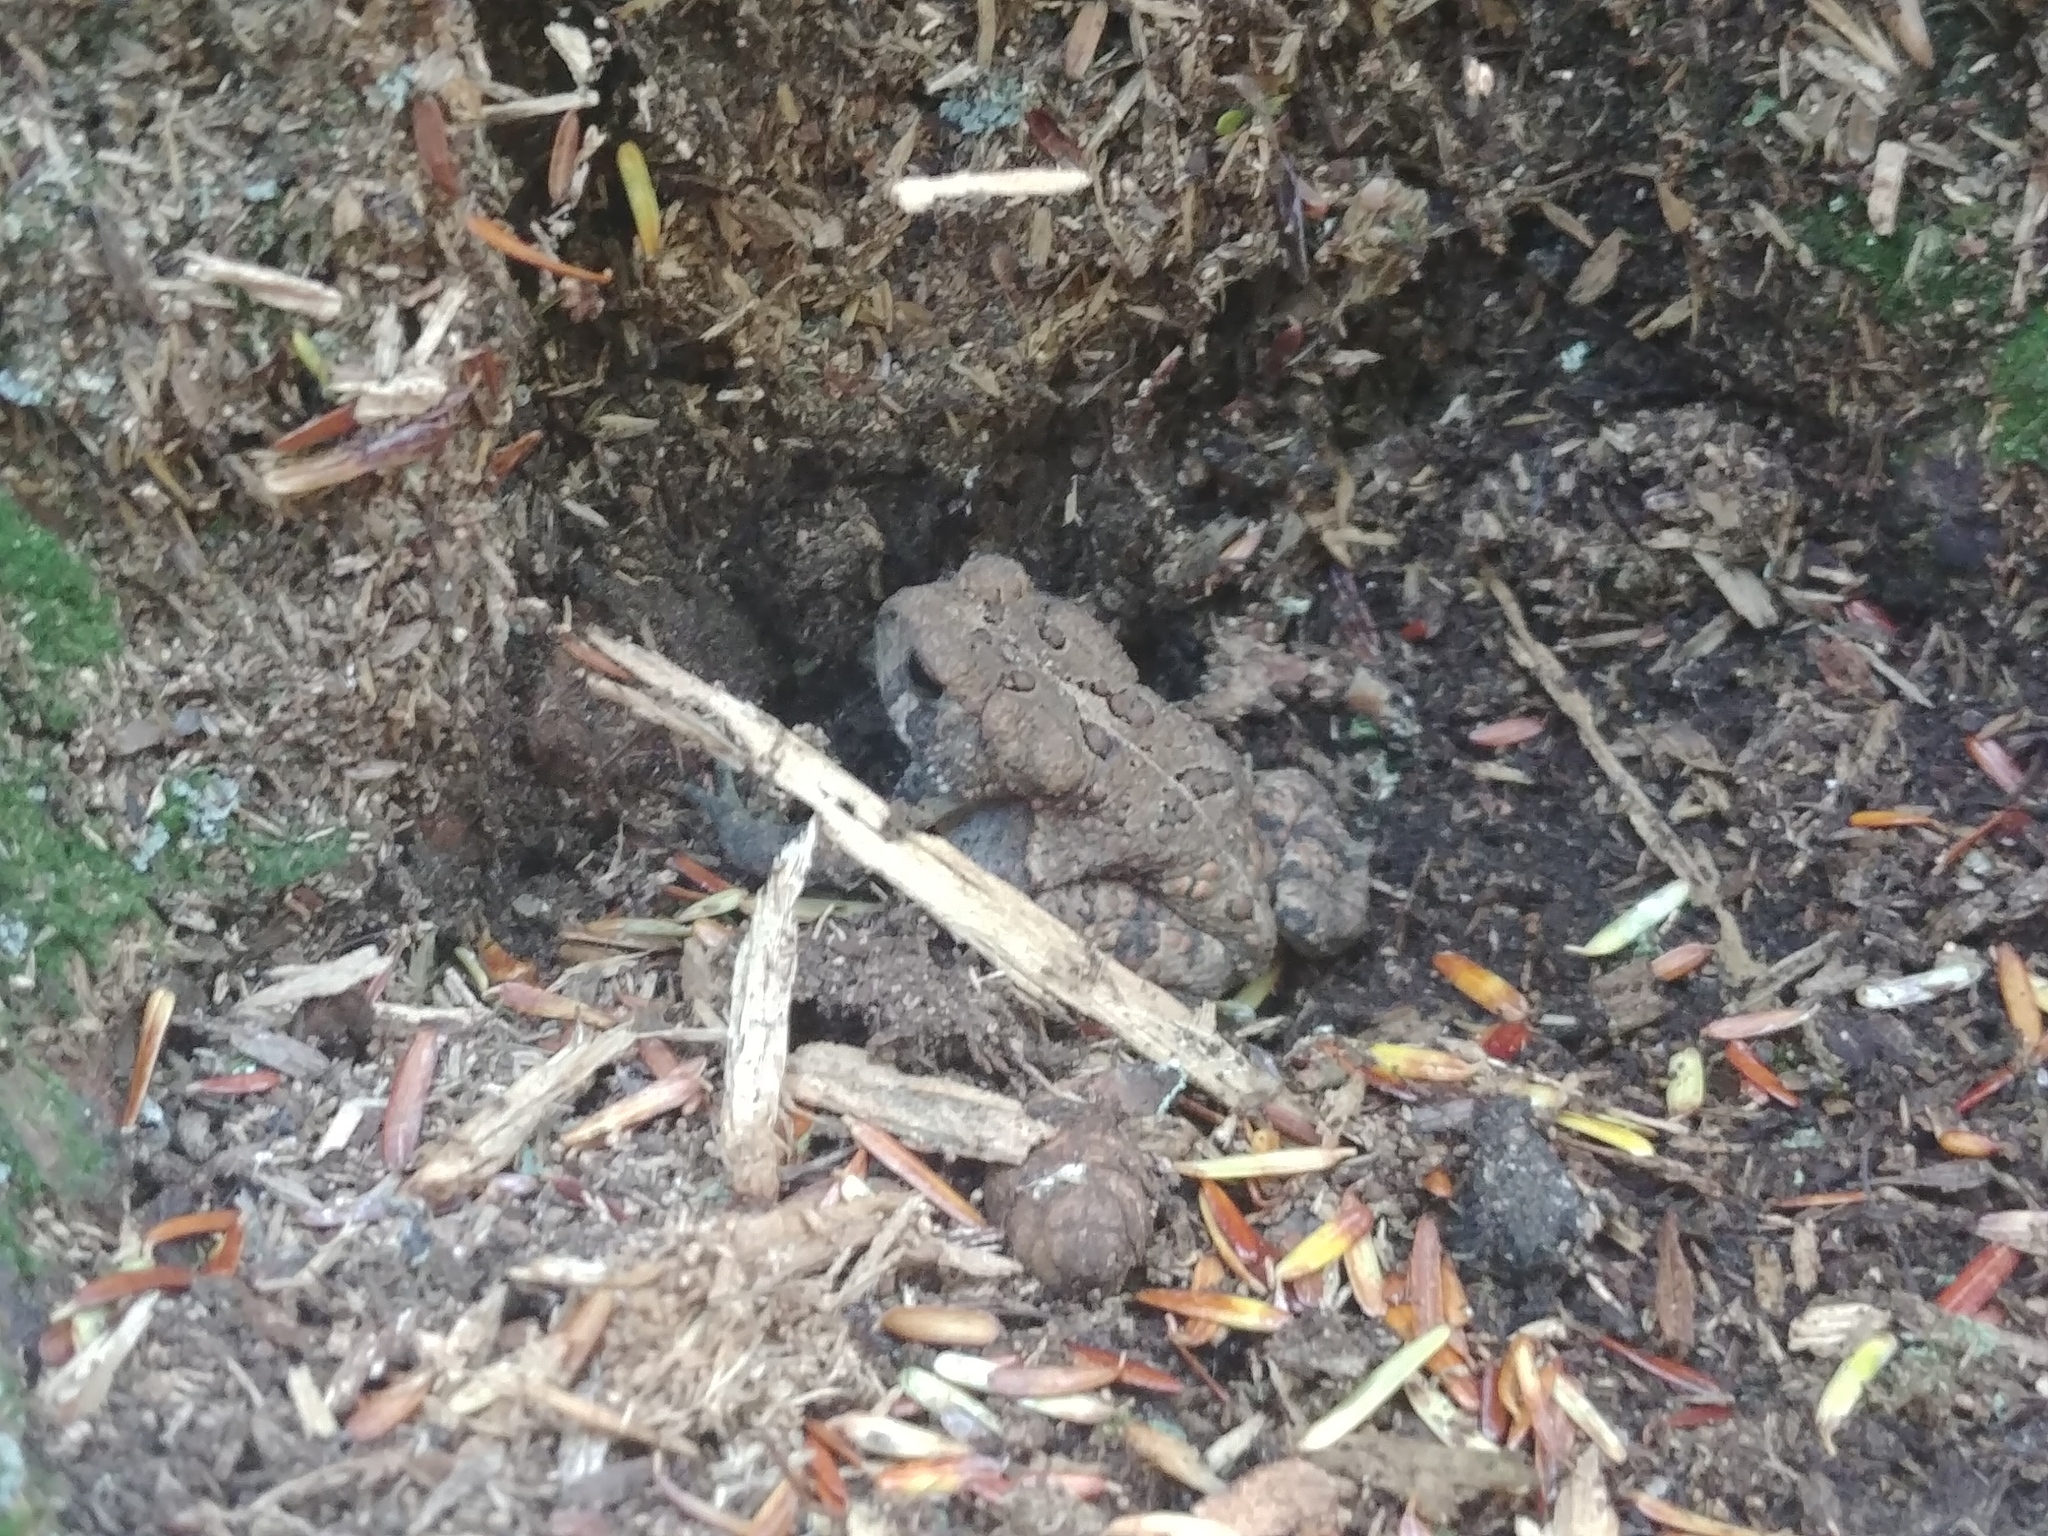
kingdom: Animalia
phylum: Chordata
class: Amphibia
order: Anura
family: Bufonidae
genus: Anaxyrus
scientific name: Anaxyrus americanus
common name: American toad
